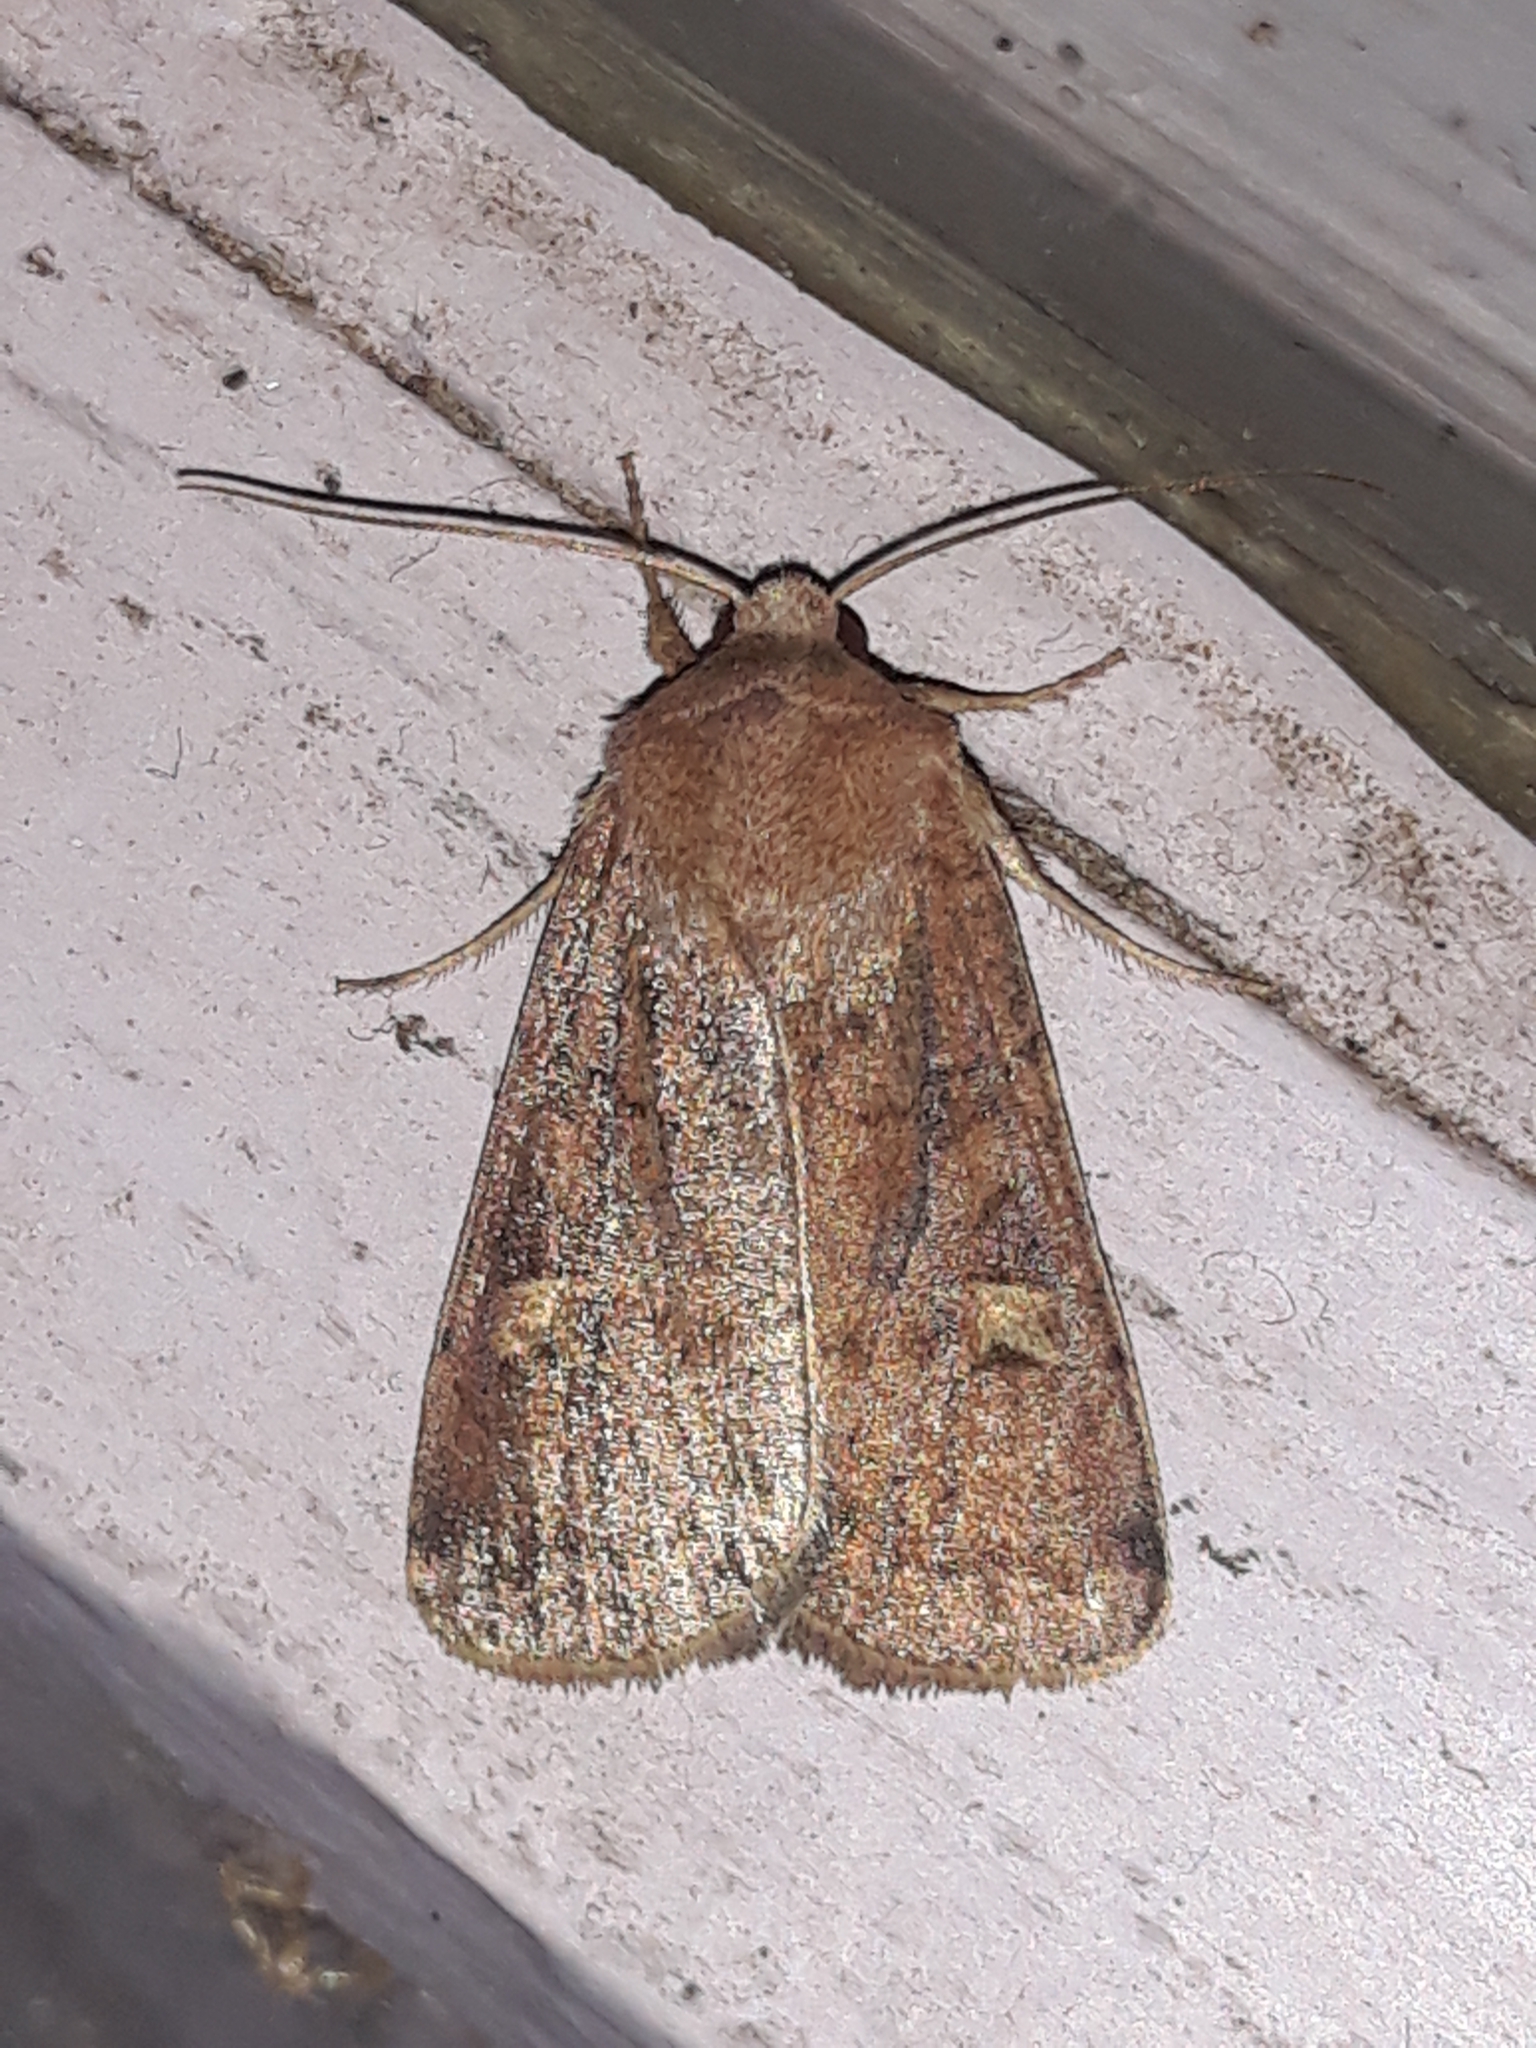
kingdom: Animalia
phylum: Arthropoda
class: Insecta
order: Lepidoptera
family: Noctuidae
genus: Xestia
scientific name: Xestia xanthographa
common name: Square-spot rustic
